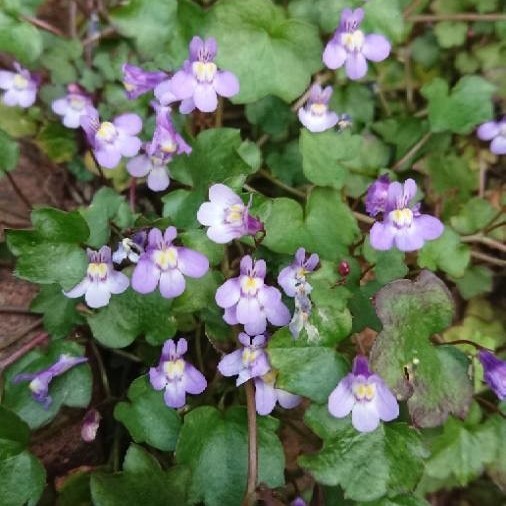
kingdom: Plantae
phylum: Tracheophyta
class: Magnoliopsida
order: Lamiales
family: Plantaginaceae
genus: Cymbalaria
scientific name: Cymbalaria muralis
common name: Ivy-leaved toadflax
